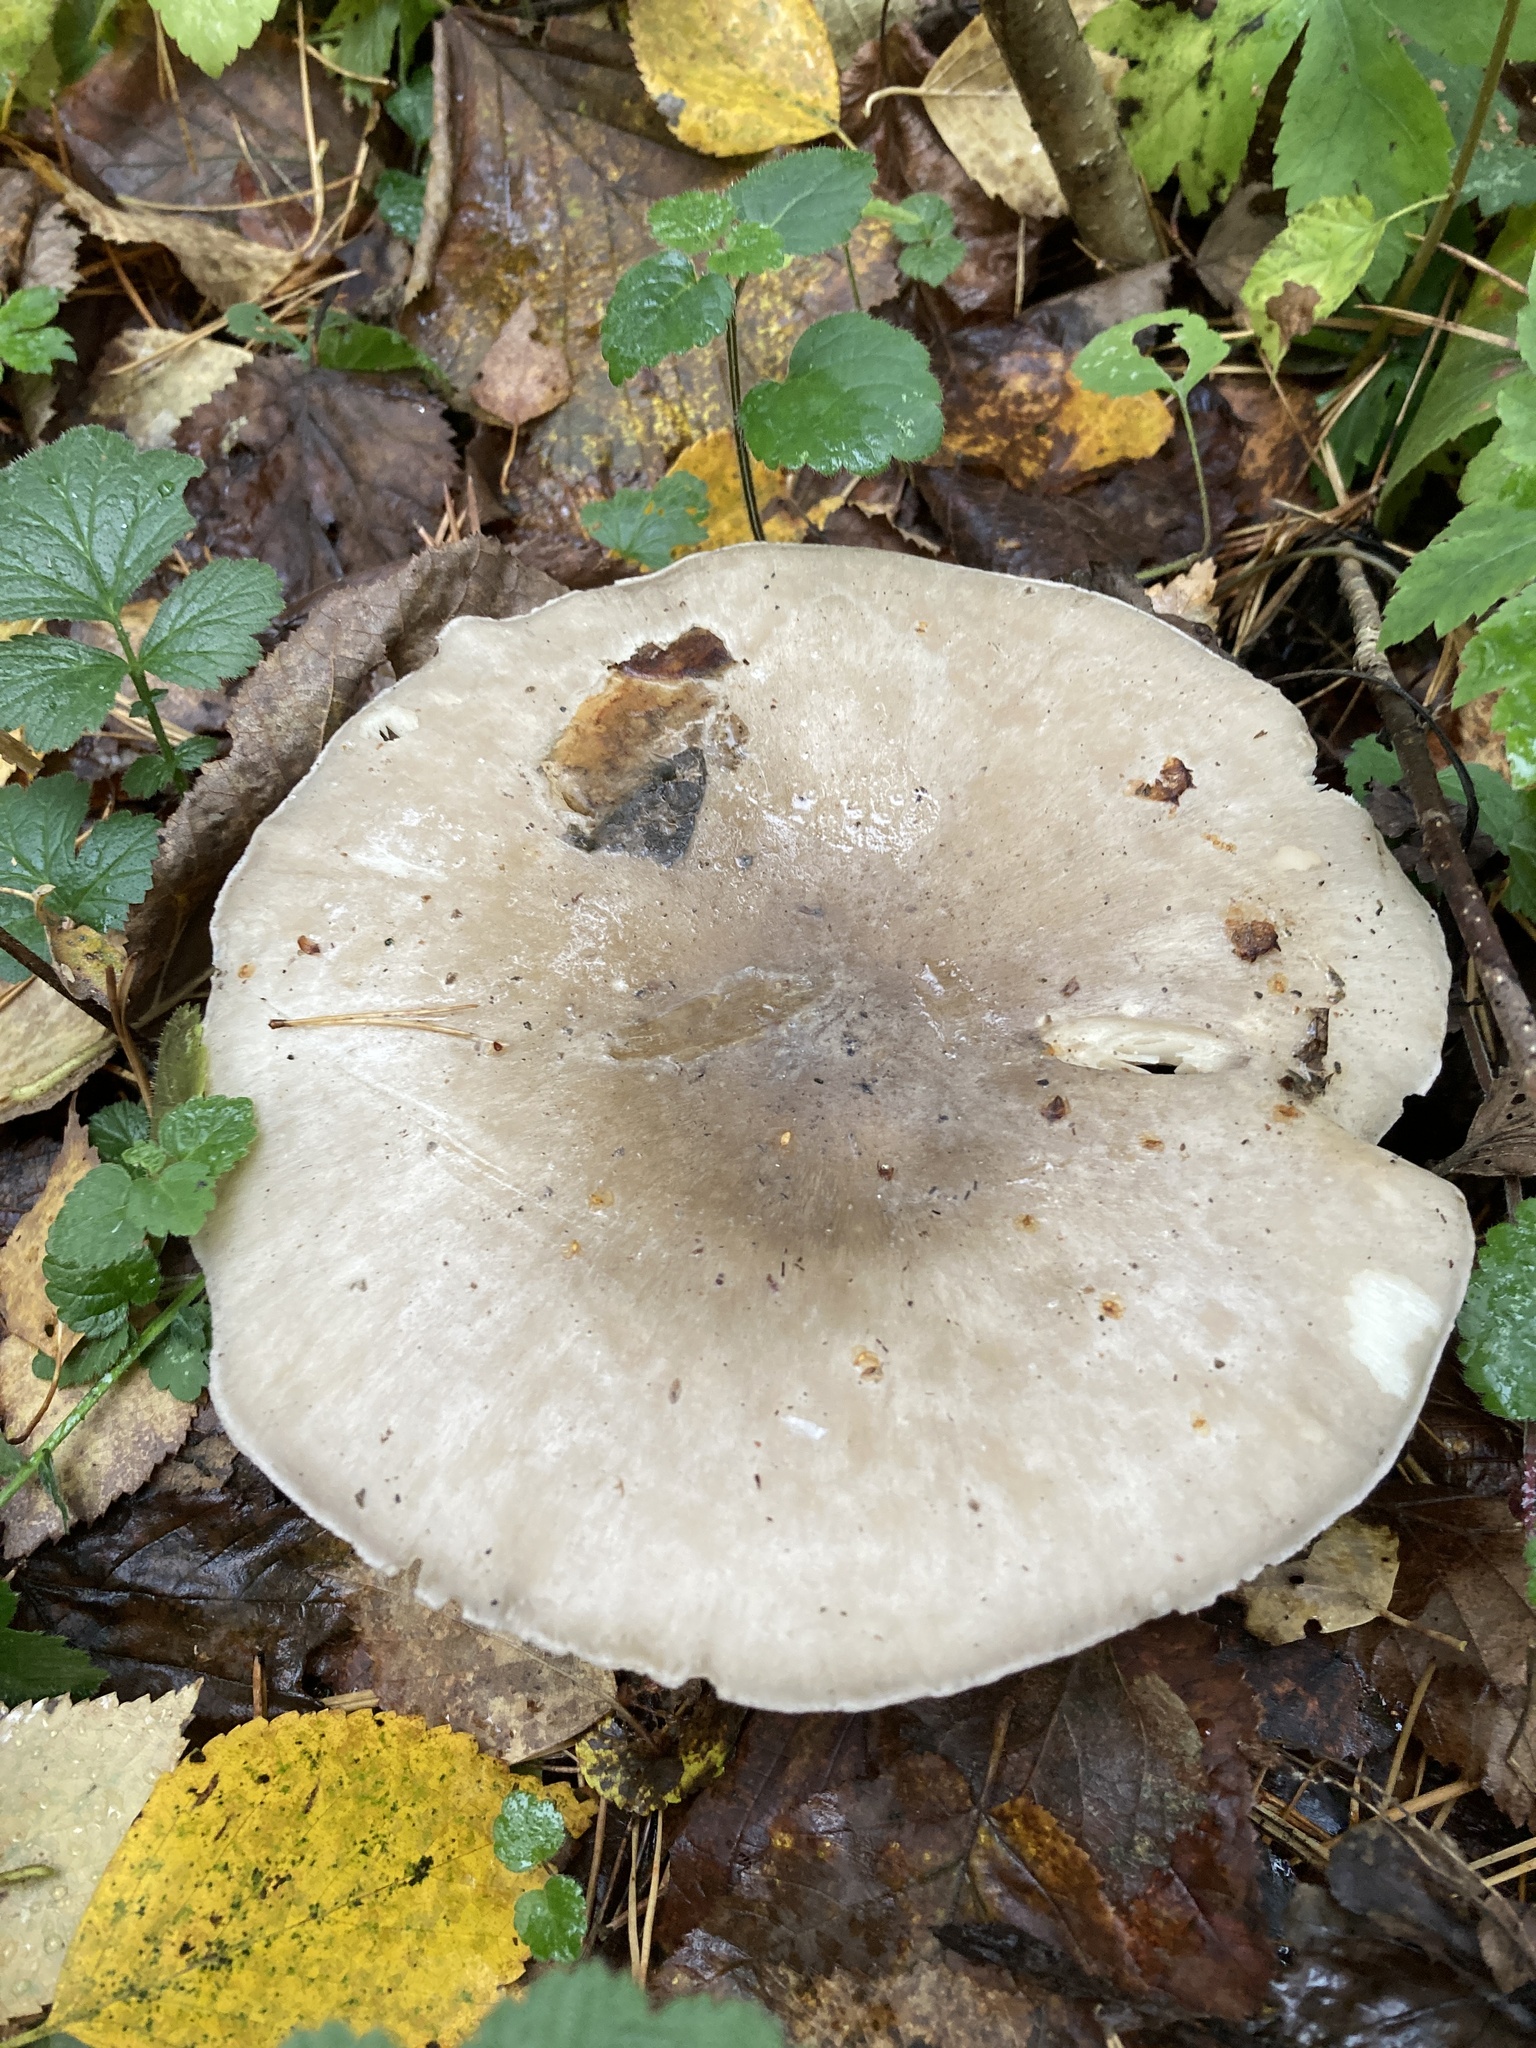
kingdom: Fungi
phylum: Basidiomycota
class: Agaricomycetes
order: Agaricales
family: Tricholomataceae
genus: Clitocybe
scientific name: Clitocybe nebularis
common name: Clouded agaric
